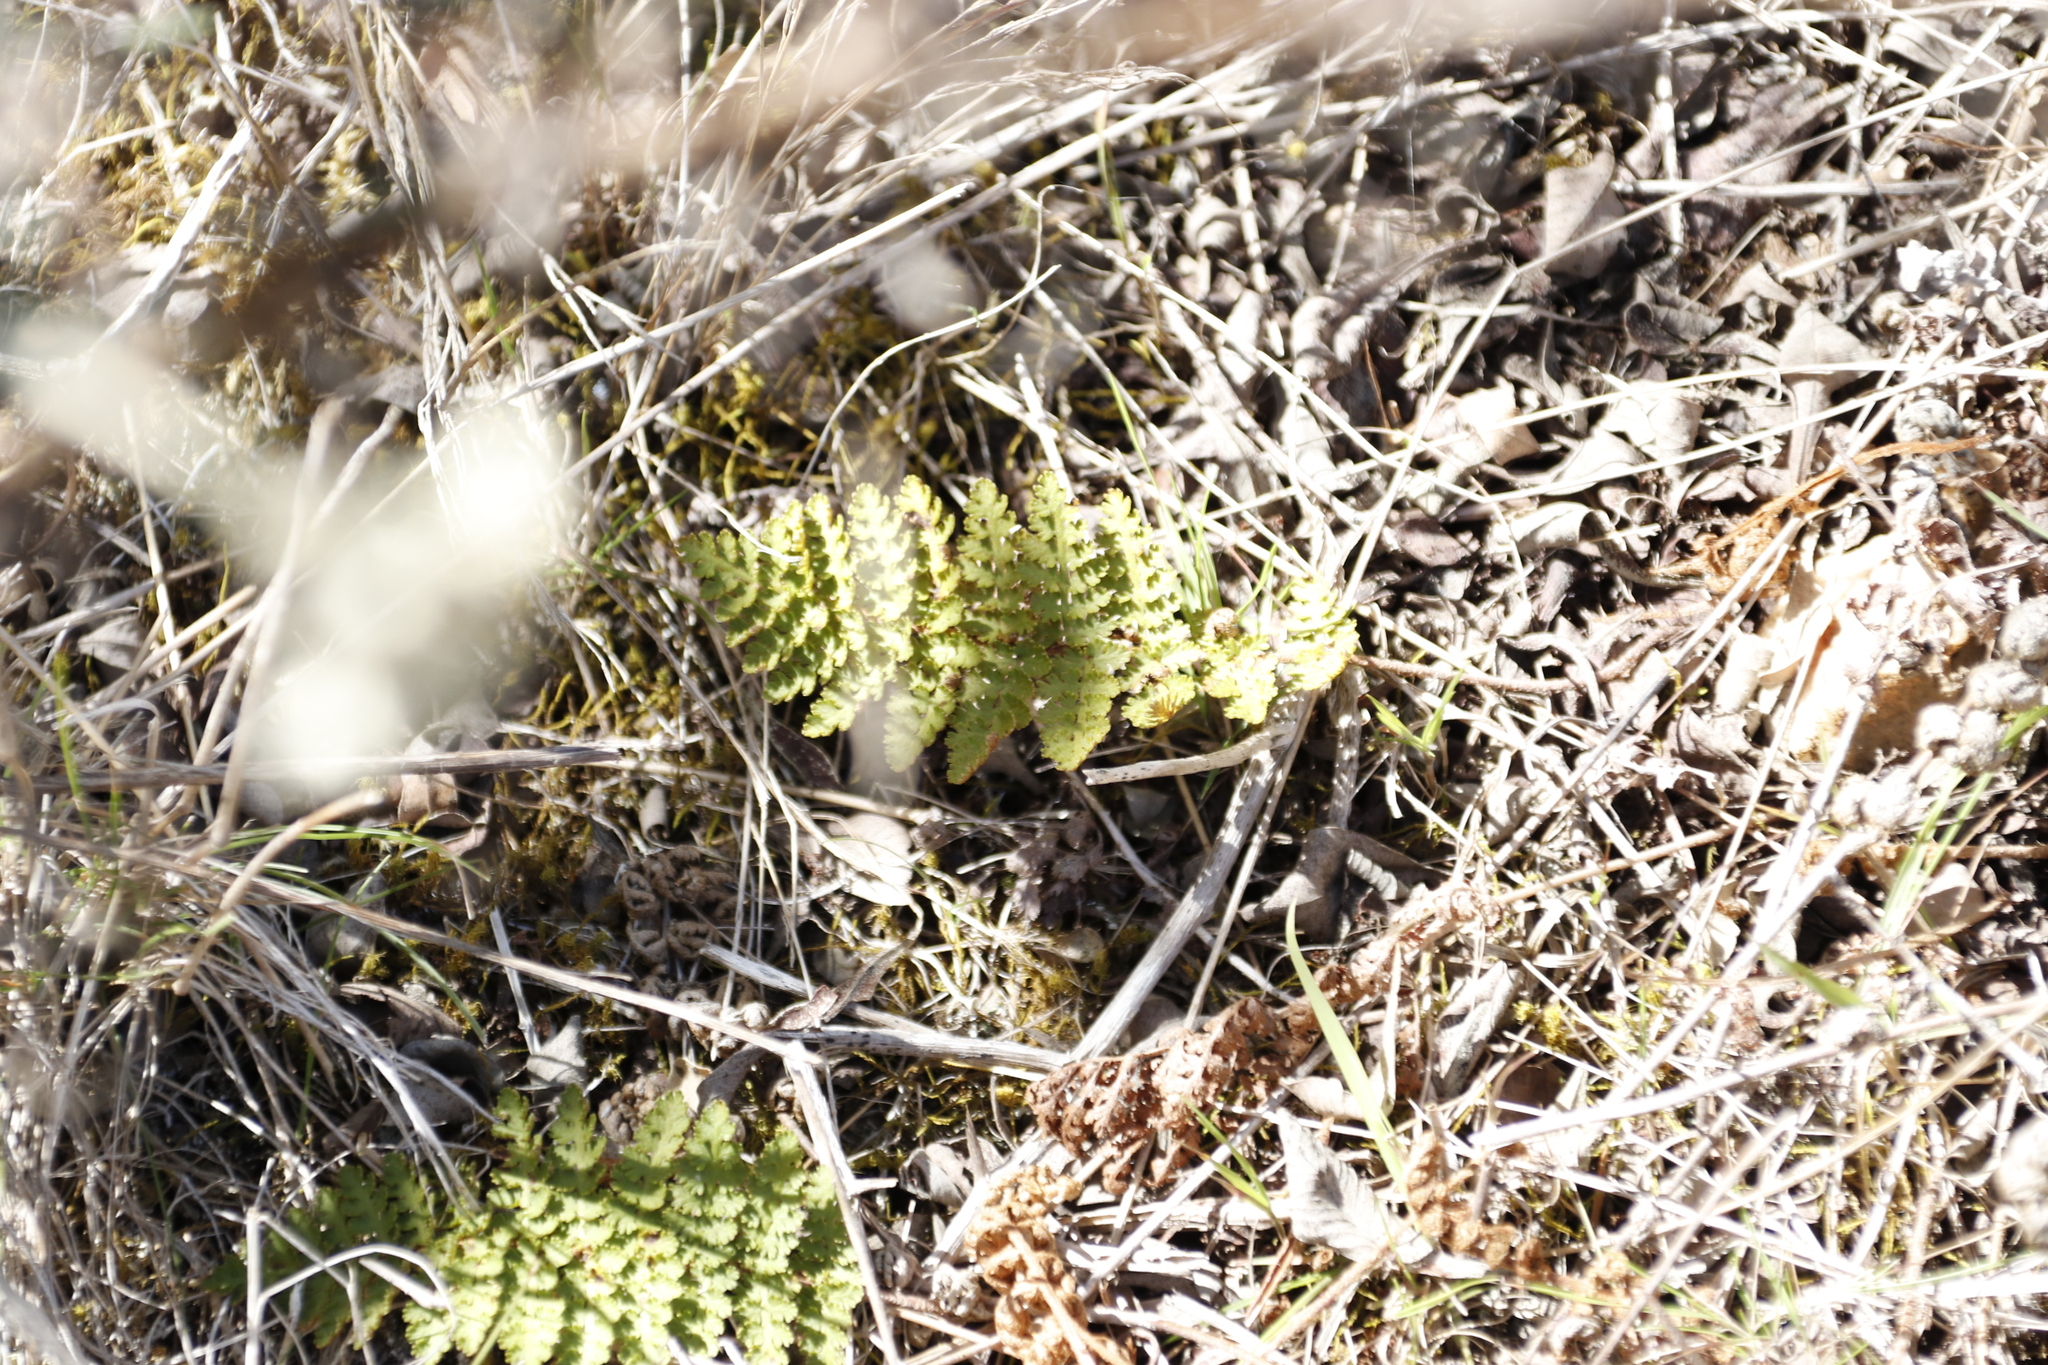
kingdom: Plantae
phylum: Tracheophyta
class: Polypodiopsida
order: Schizaeales
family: Anemiaceae
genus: Anemia
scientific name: Anemia caffrorum
